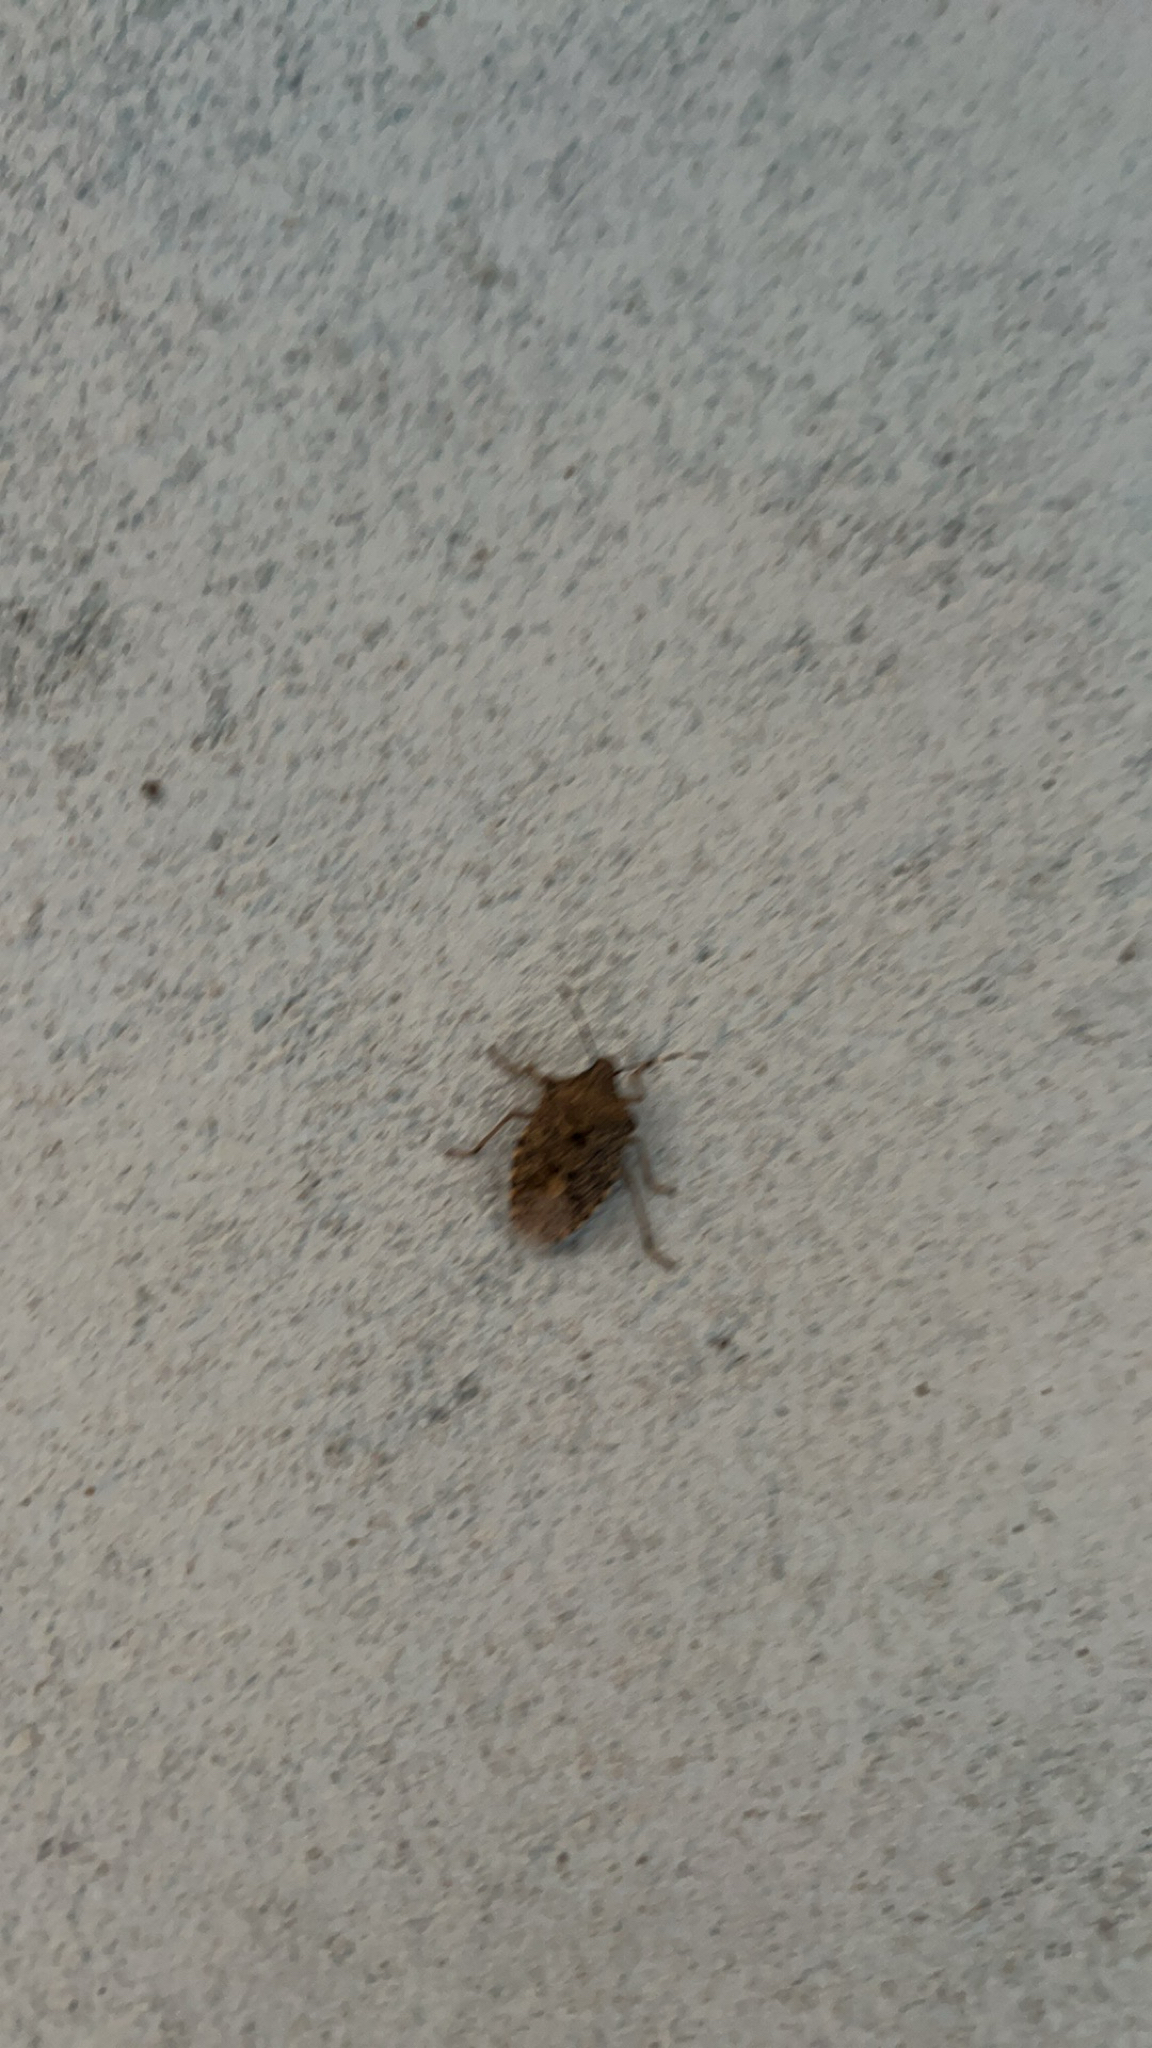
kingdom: Animalia
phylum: Arthropoda
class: Insecta
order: Hemiptera
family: Pentatomidae
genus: Rhaphigaster
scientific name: Rhaphigaster nebulosa
